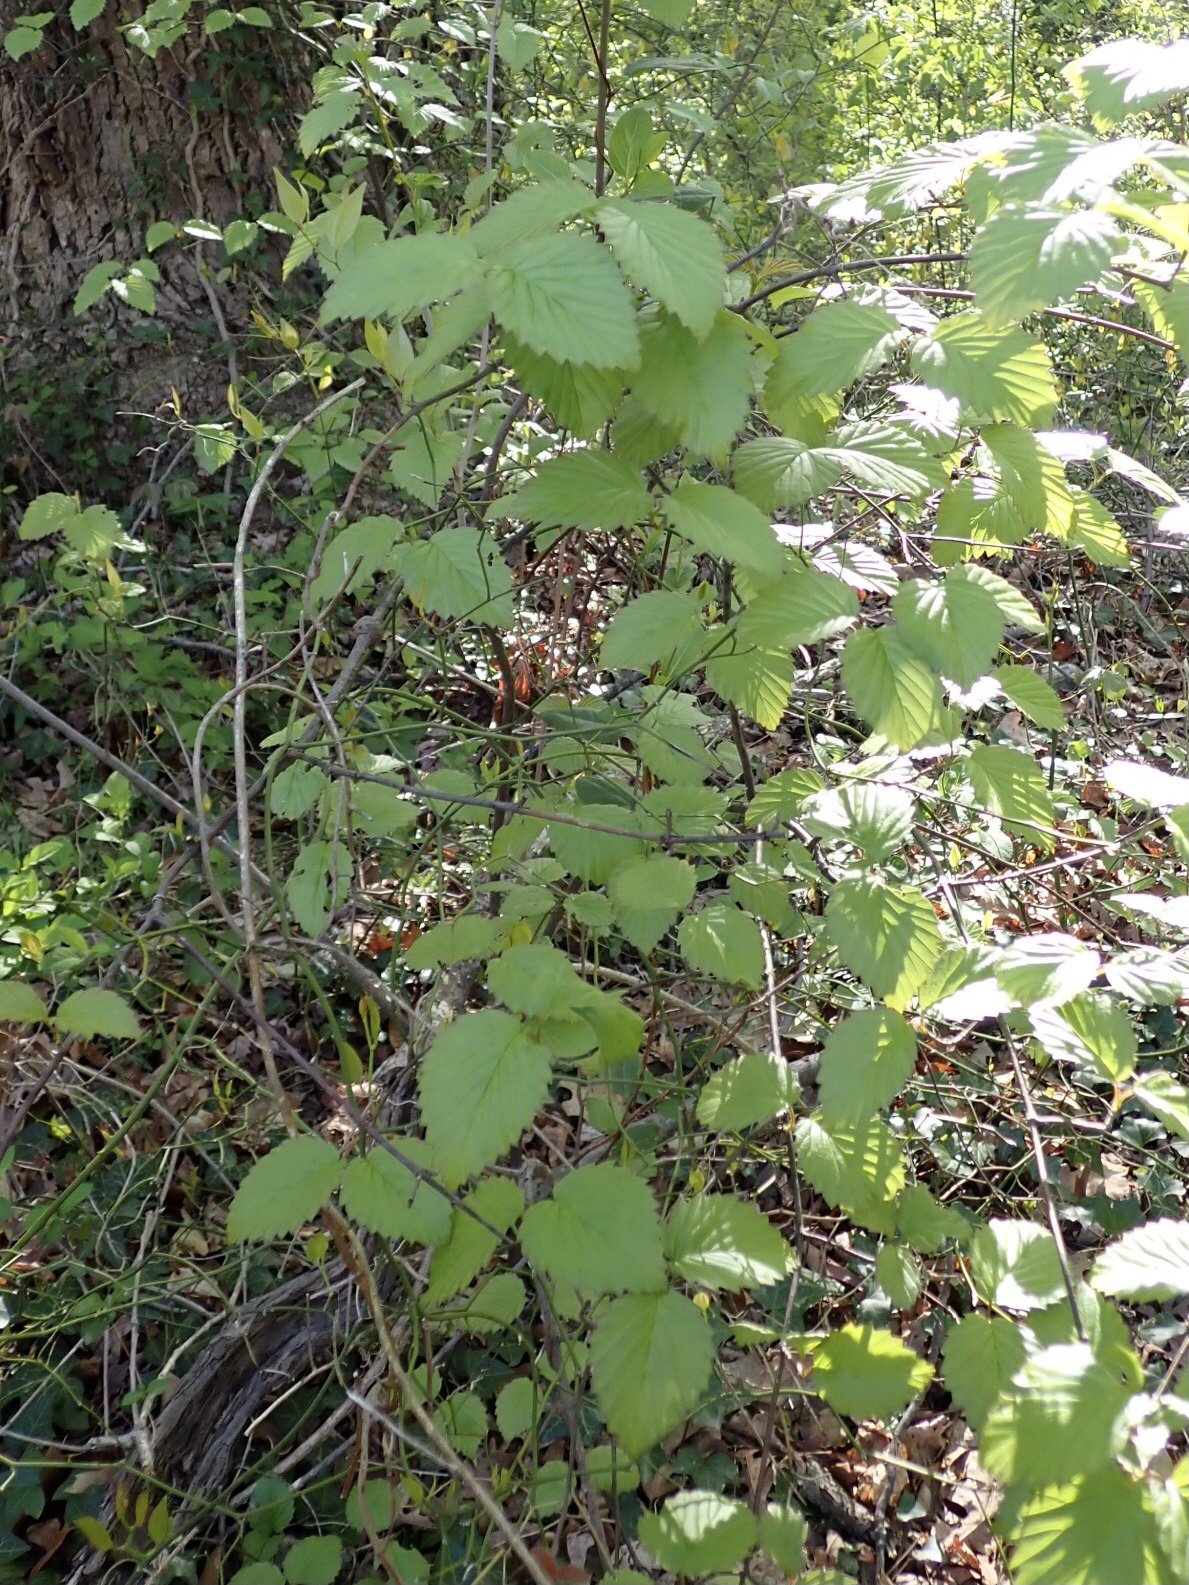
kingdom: Plantae
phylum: Tracheophyta
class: Magnoliopsida
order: Dipsacales
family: Viburnaceae
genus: Viburnum
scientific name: Viburnum dentatum
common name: Arrow-wood
